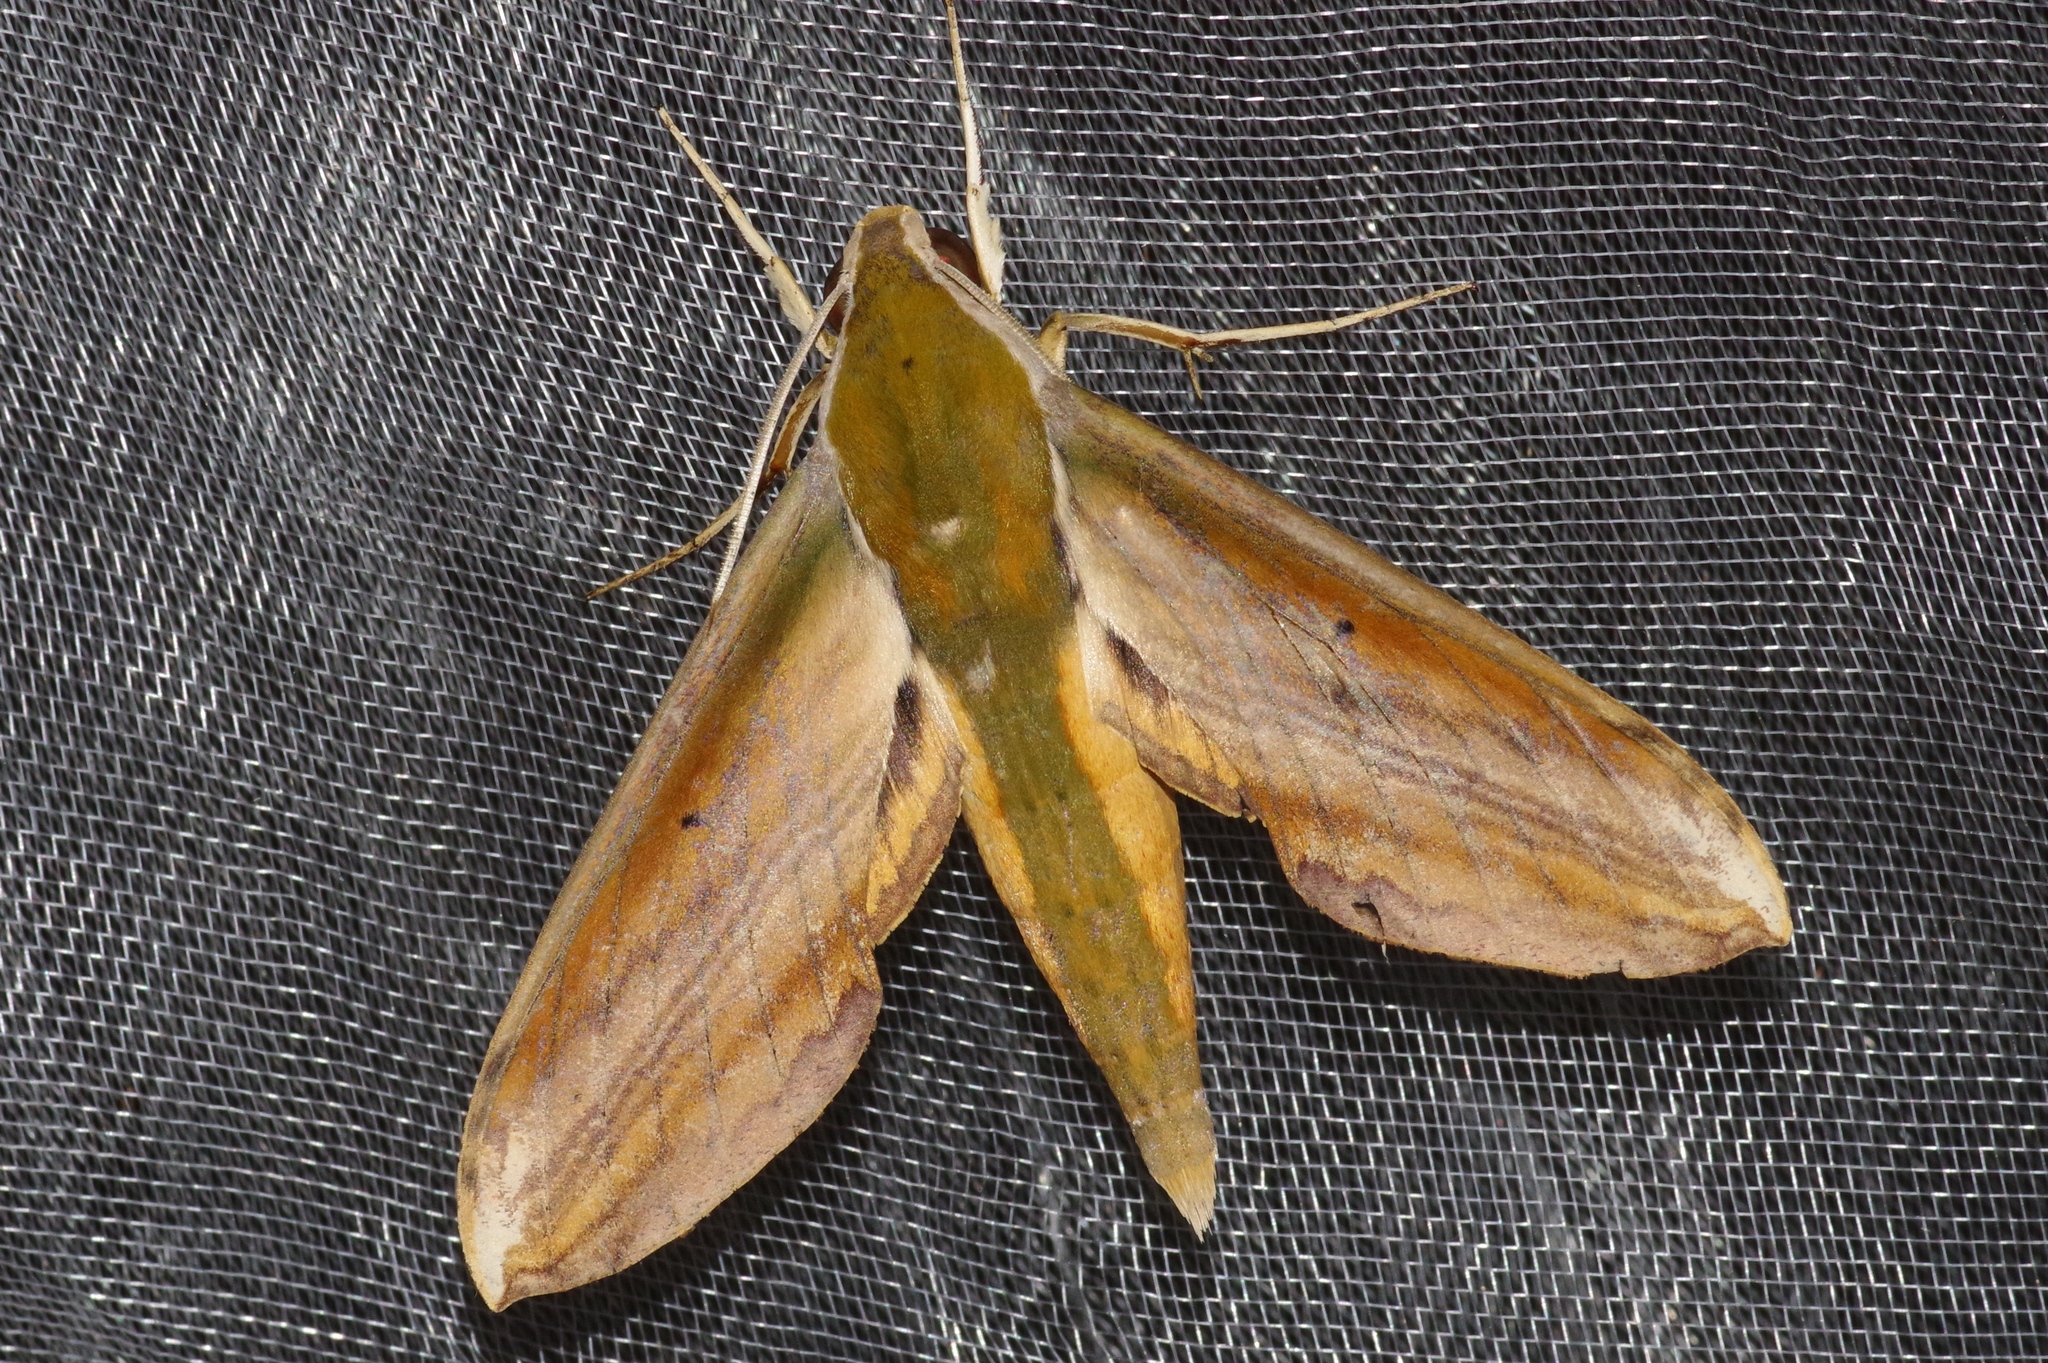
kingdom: Animalia
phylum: Arthropoda
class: Insecta
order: Lepidoptera
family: Sphingidae
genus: Theretra
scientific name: Theretra nessus
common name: Yam hawk moth
